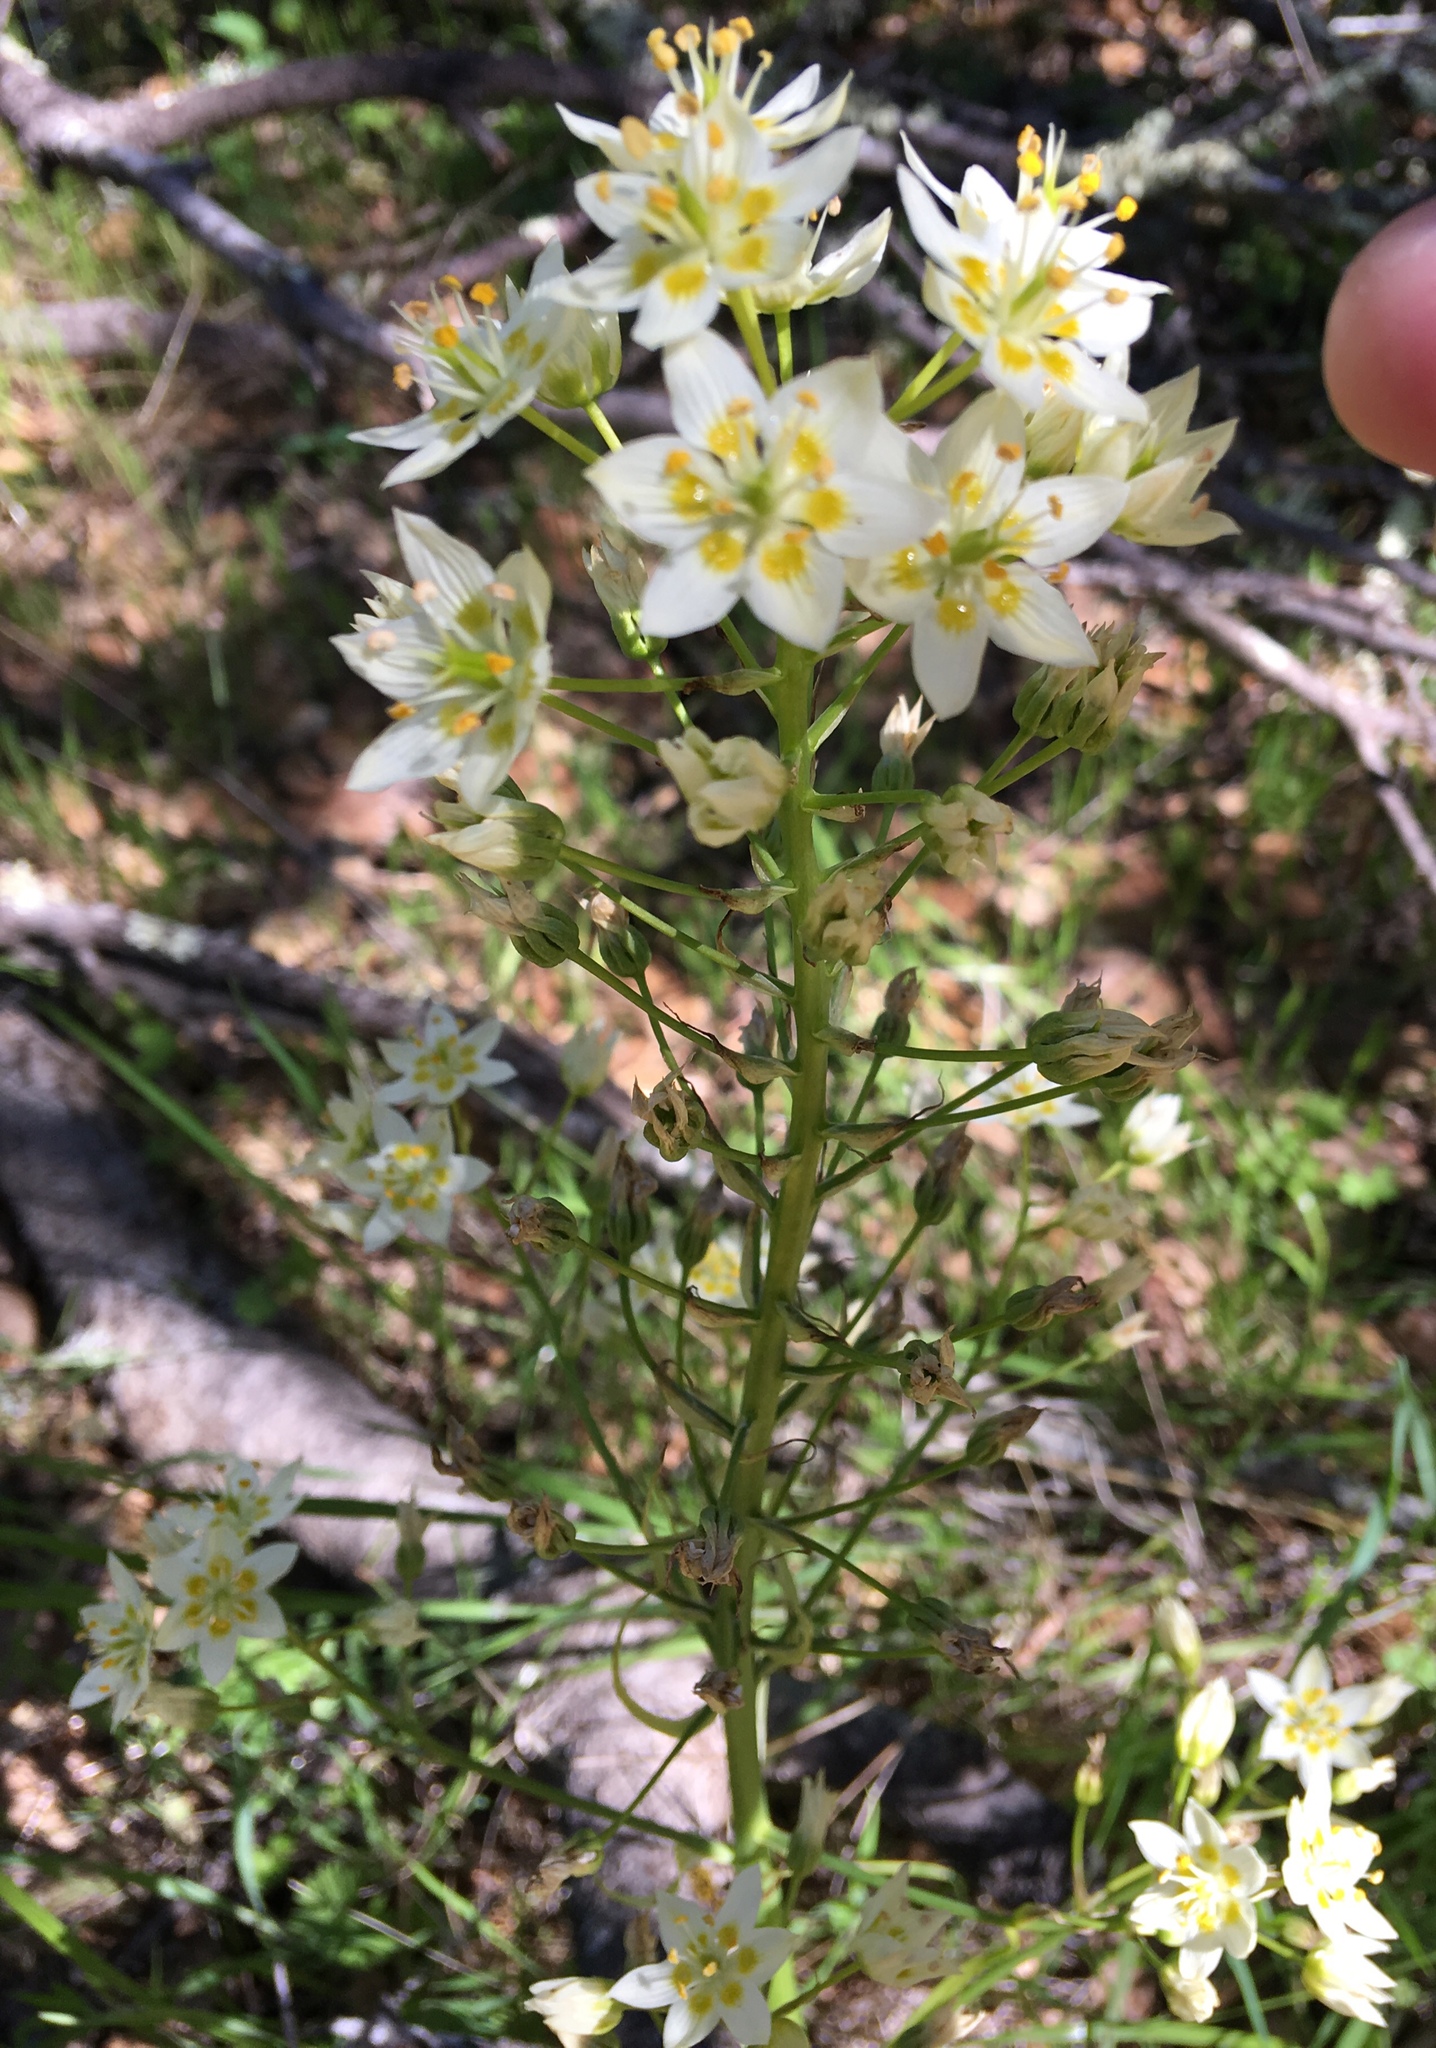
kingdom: Plantae
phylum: Tracheophyta
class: Liliopsida
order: Liliales
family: Melanthiaceae
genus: Toxicoscordion
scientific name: Toxicoscordion fremontii
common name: Fremont's death camas
